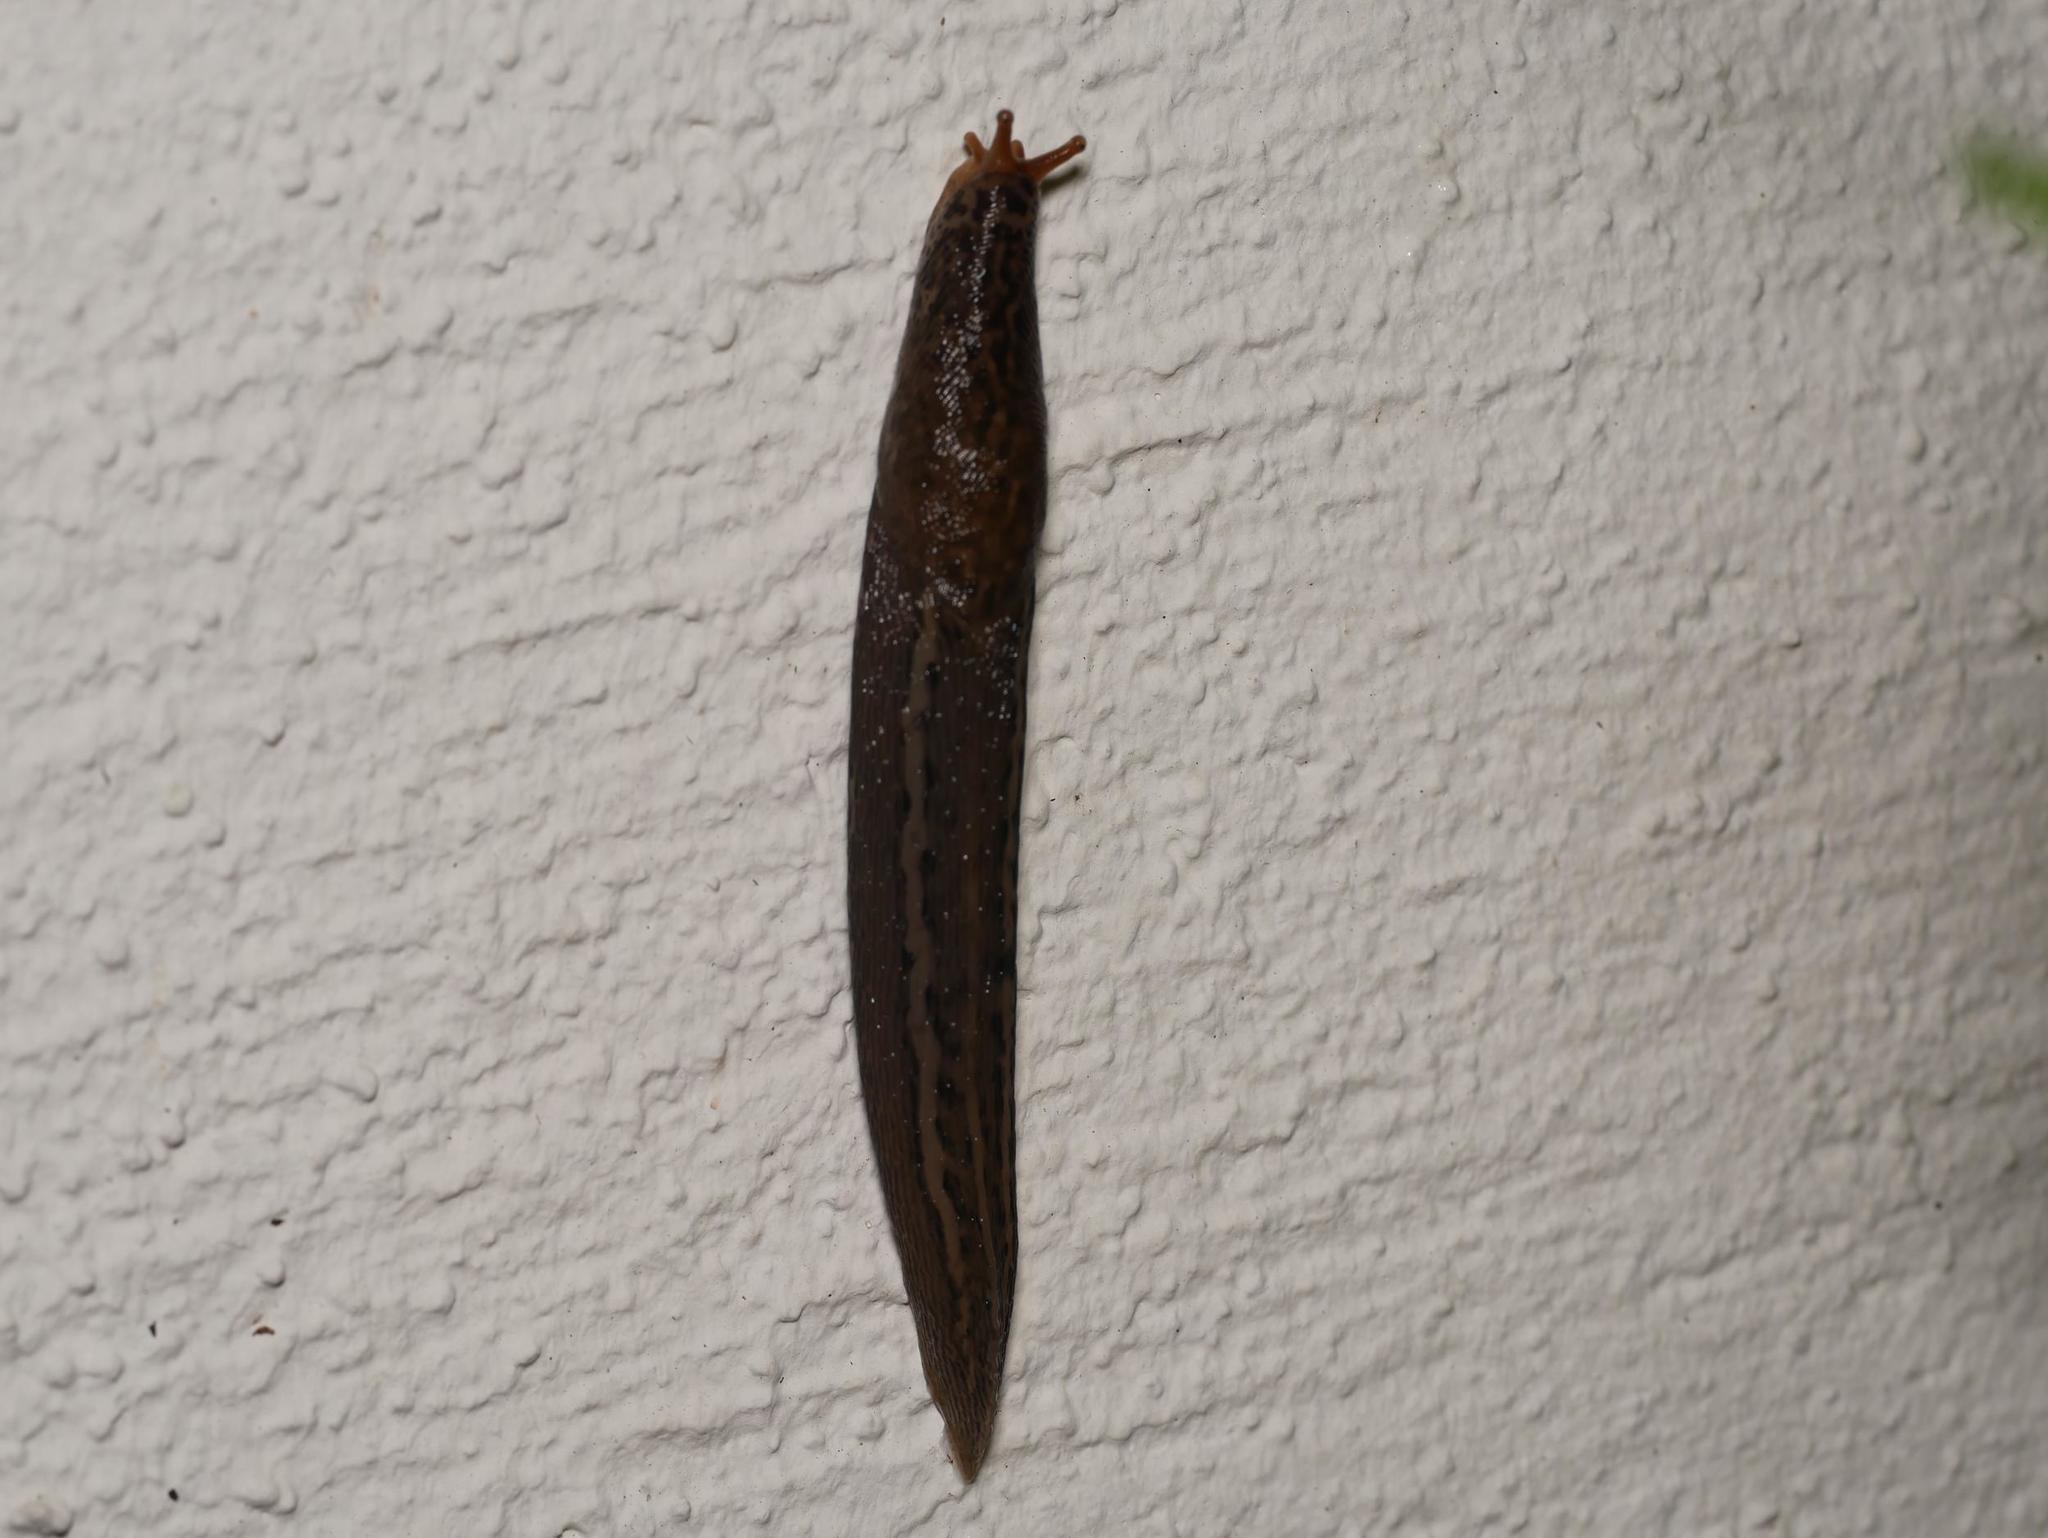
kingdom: Animalia
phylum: Mollusca
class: Gastropoda
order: Stylommatophora
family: Limacidae
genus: Limax
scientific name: Limax maximus
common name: Great grey slug
